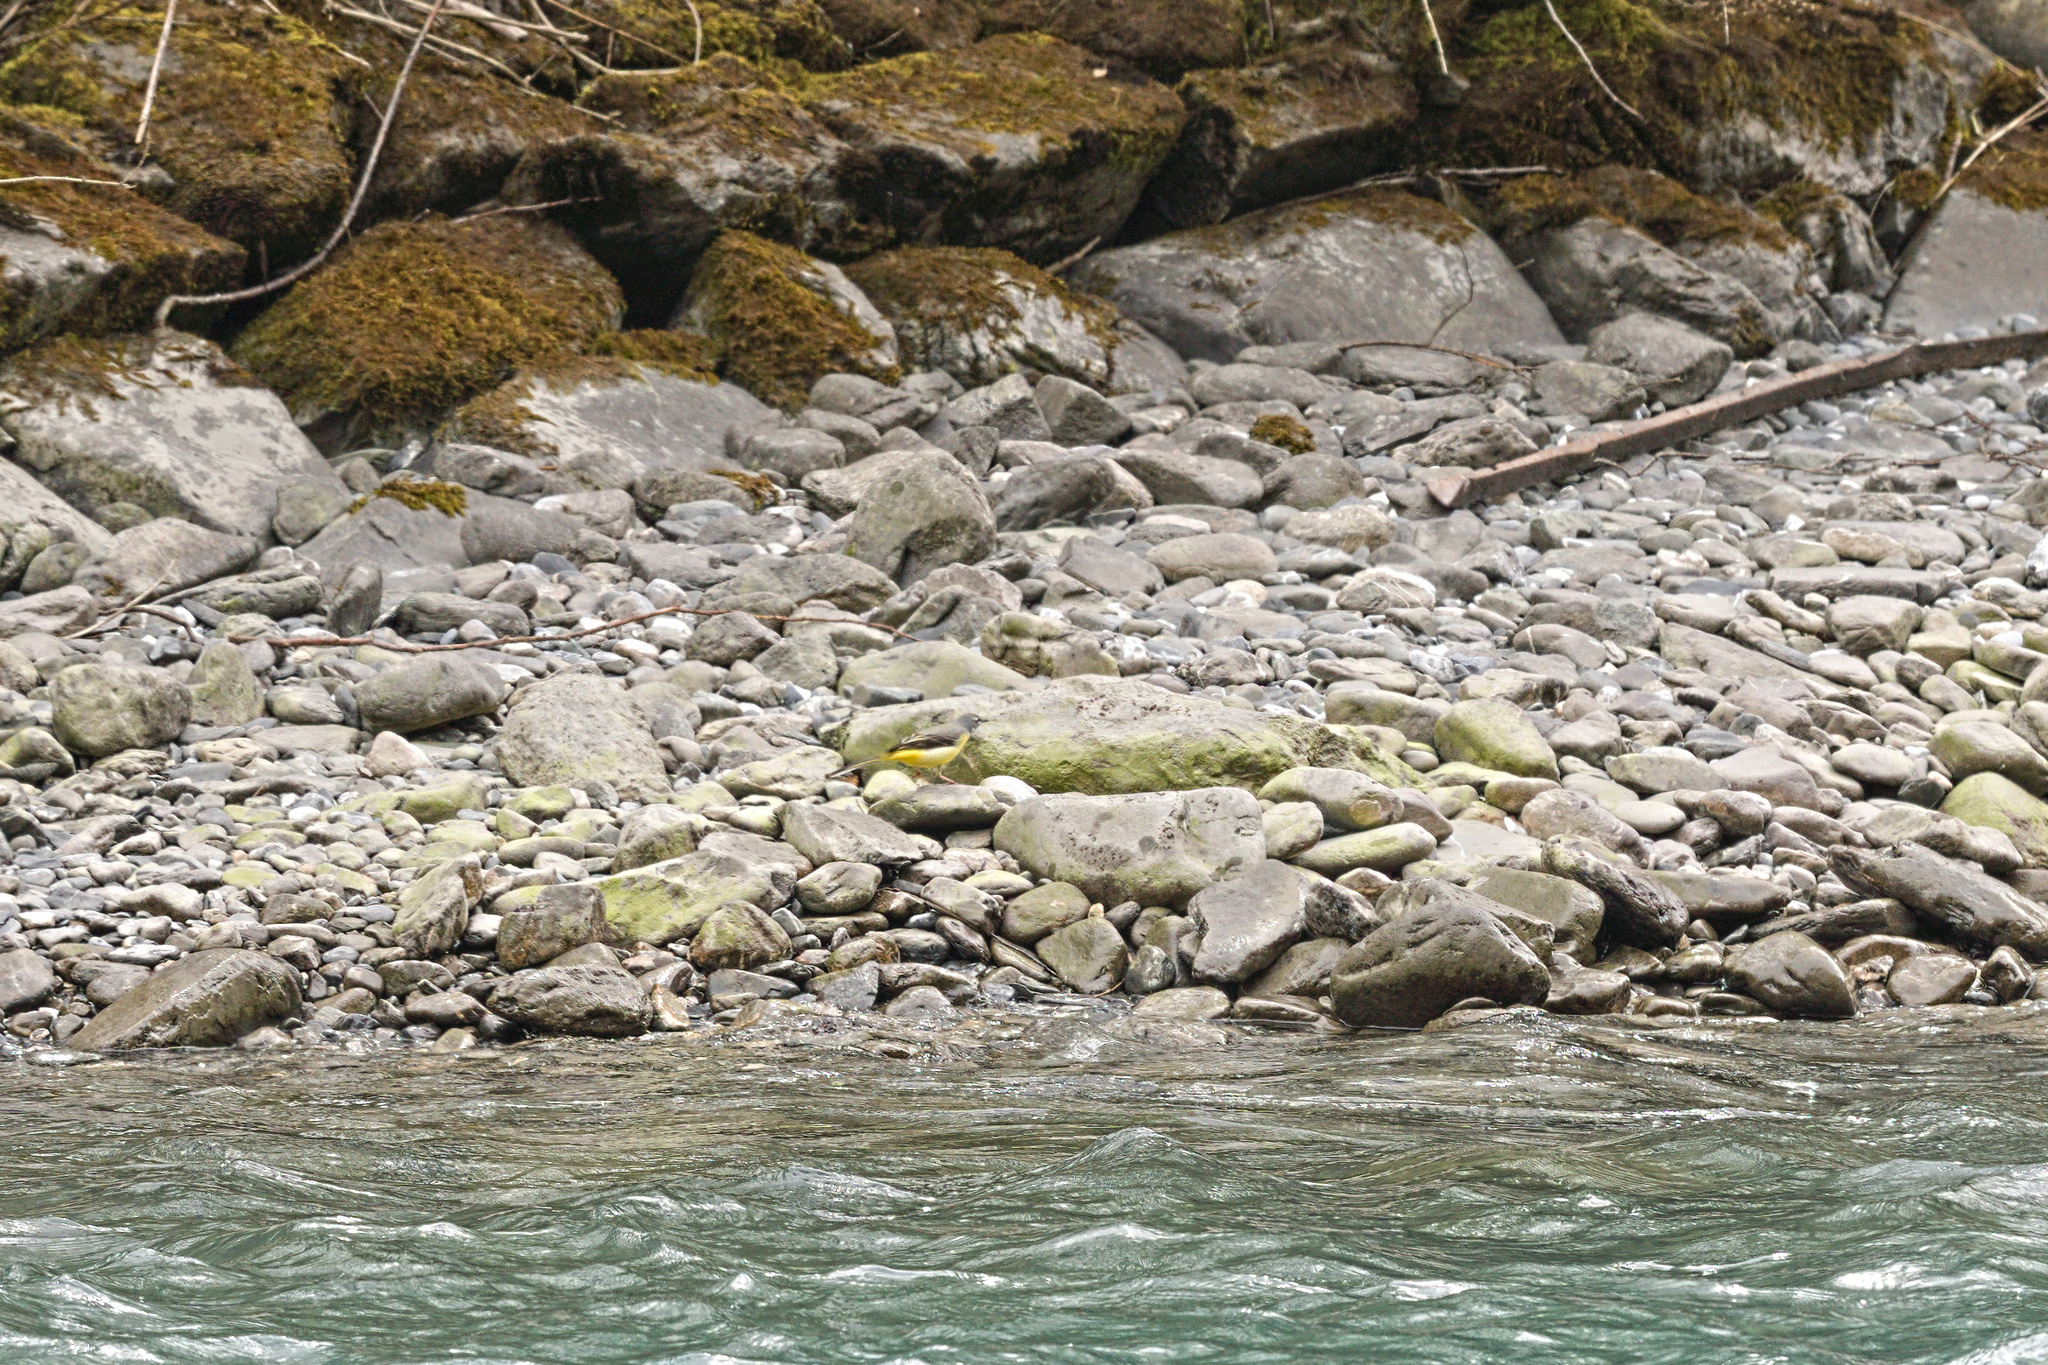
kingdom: Animalia
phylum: Chordata
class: Aves
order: Passeriformes
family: Motacillidae
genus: Motacilla
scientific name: Motacilla cinerea
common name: Grey wagtail
